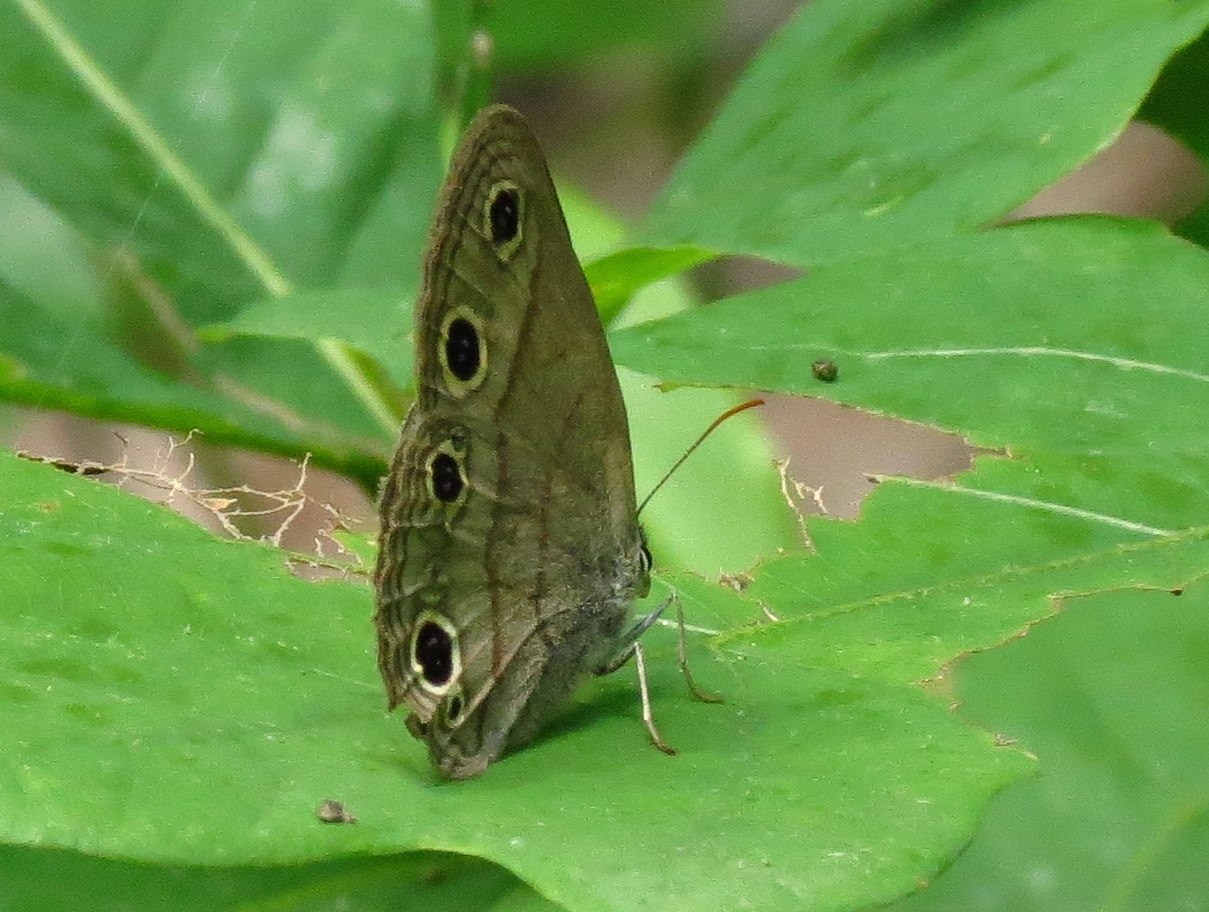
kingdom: Animalia
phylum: Arthropoda
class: Insecta
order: Lepidoptera
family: Nymphalidae
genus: Euptychia
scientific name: Euptychia cymela
